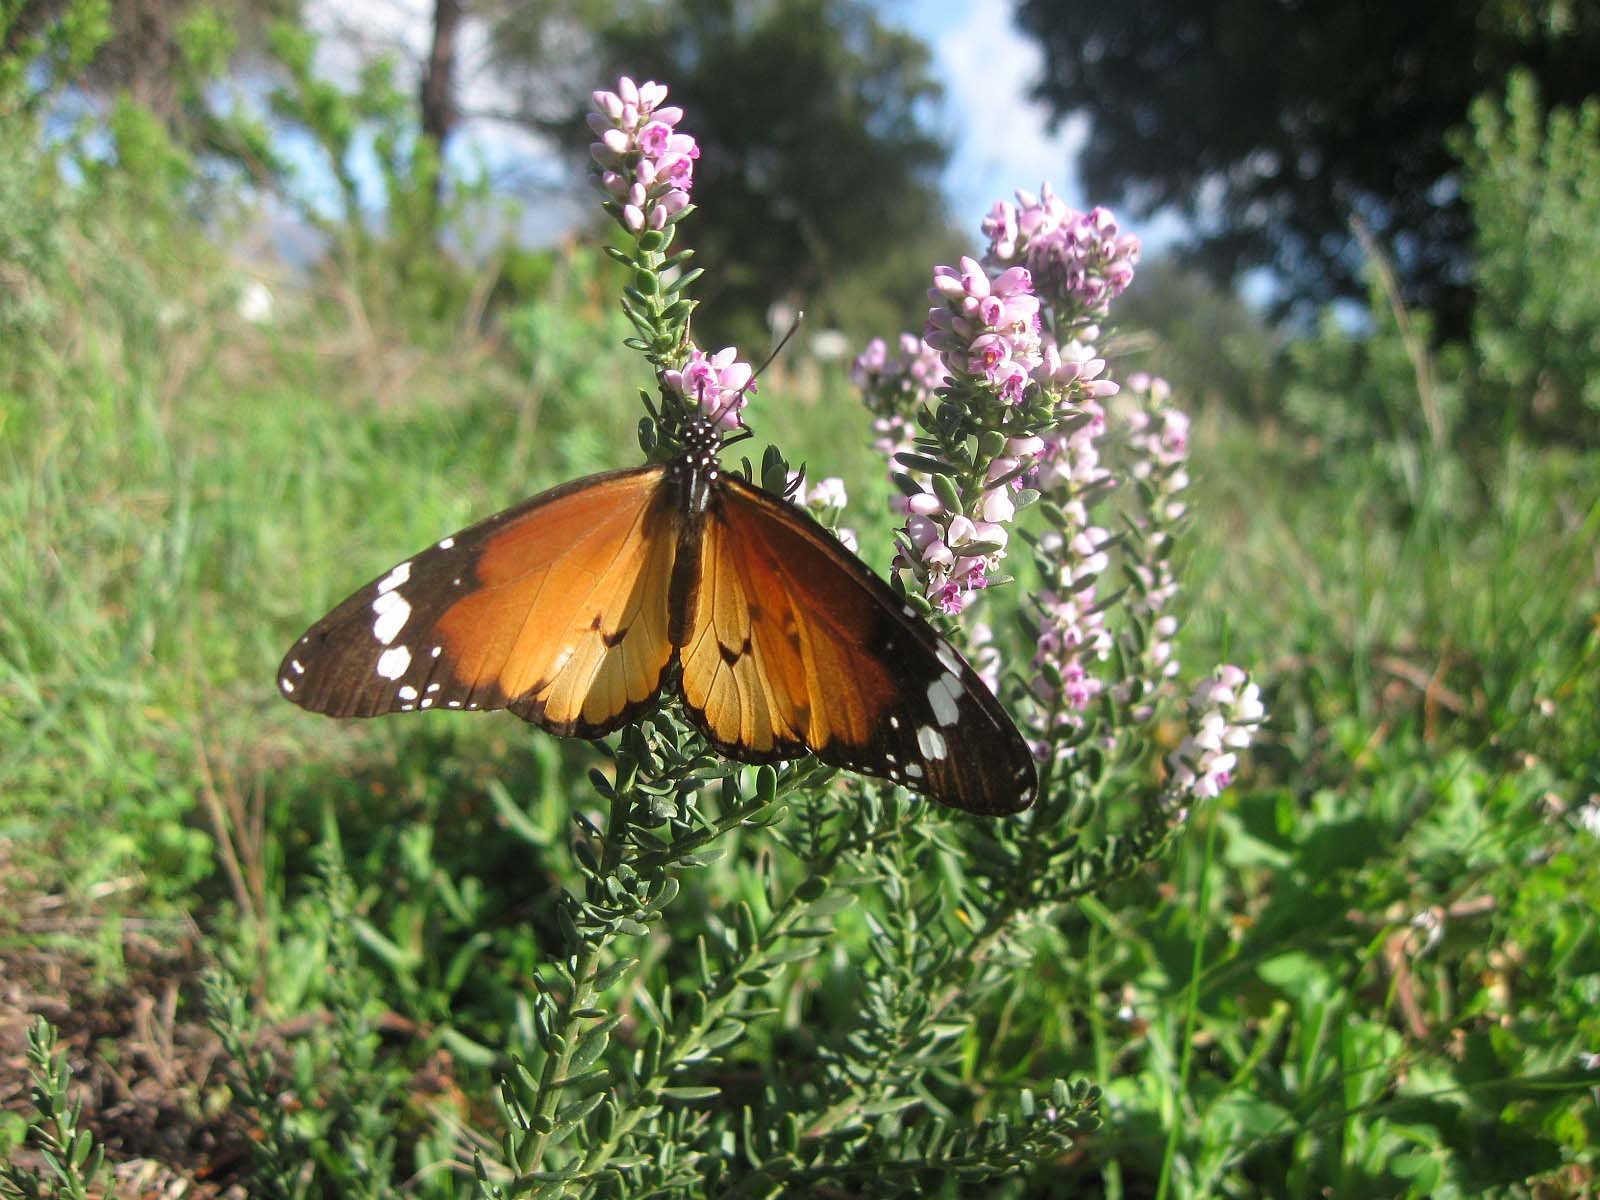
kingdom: Animalia
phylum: Arthropoda
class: Insecta
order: Lepidoptera
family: Nymphalidae
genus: Danaus
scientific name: Danaus chrysippus
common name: Plain tiger
